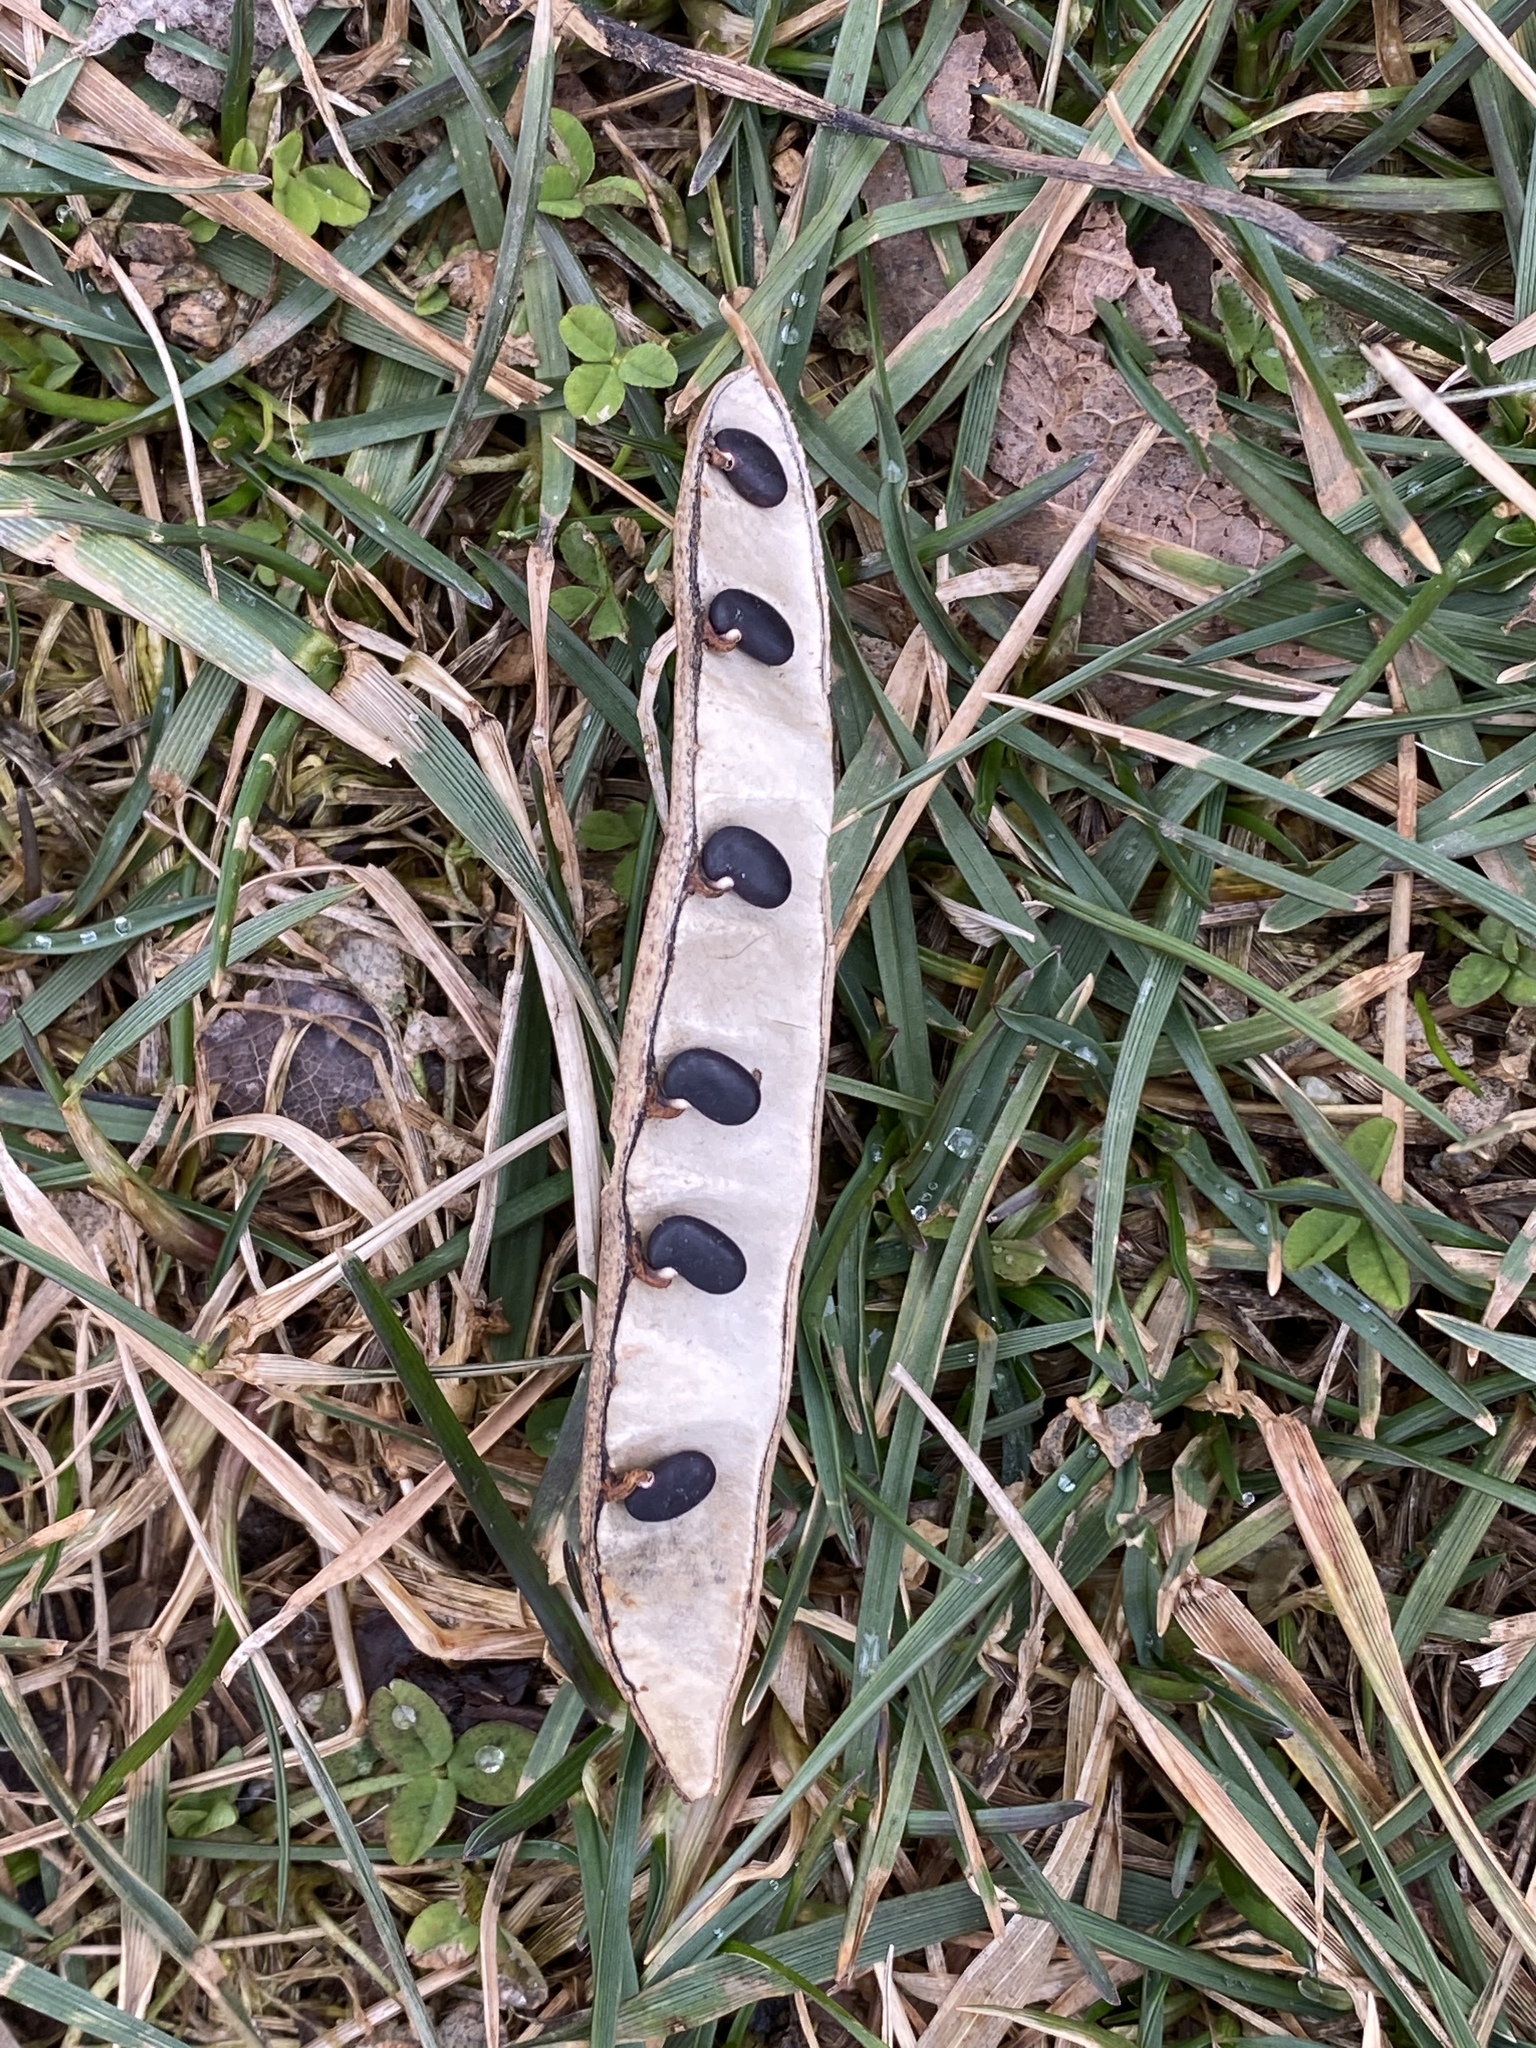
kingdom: Plantae
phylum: Tracheophyta
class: Magnoliopsida
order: Fabales
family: Fabaceae
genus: Robinia
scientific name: Robinia pseudoacacia
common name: Black locust
